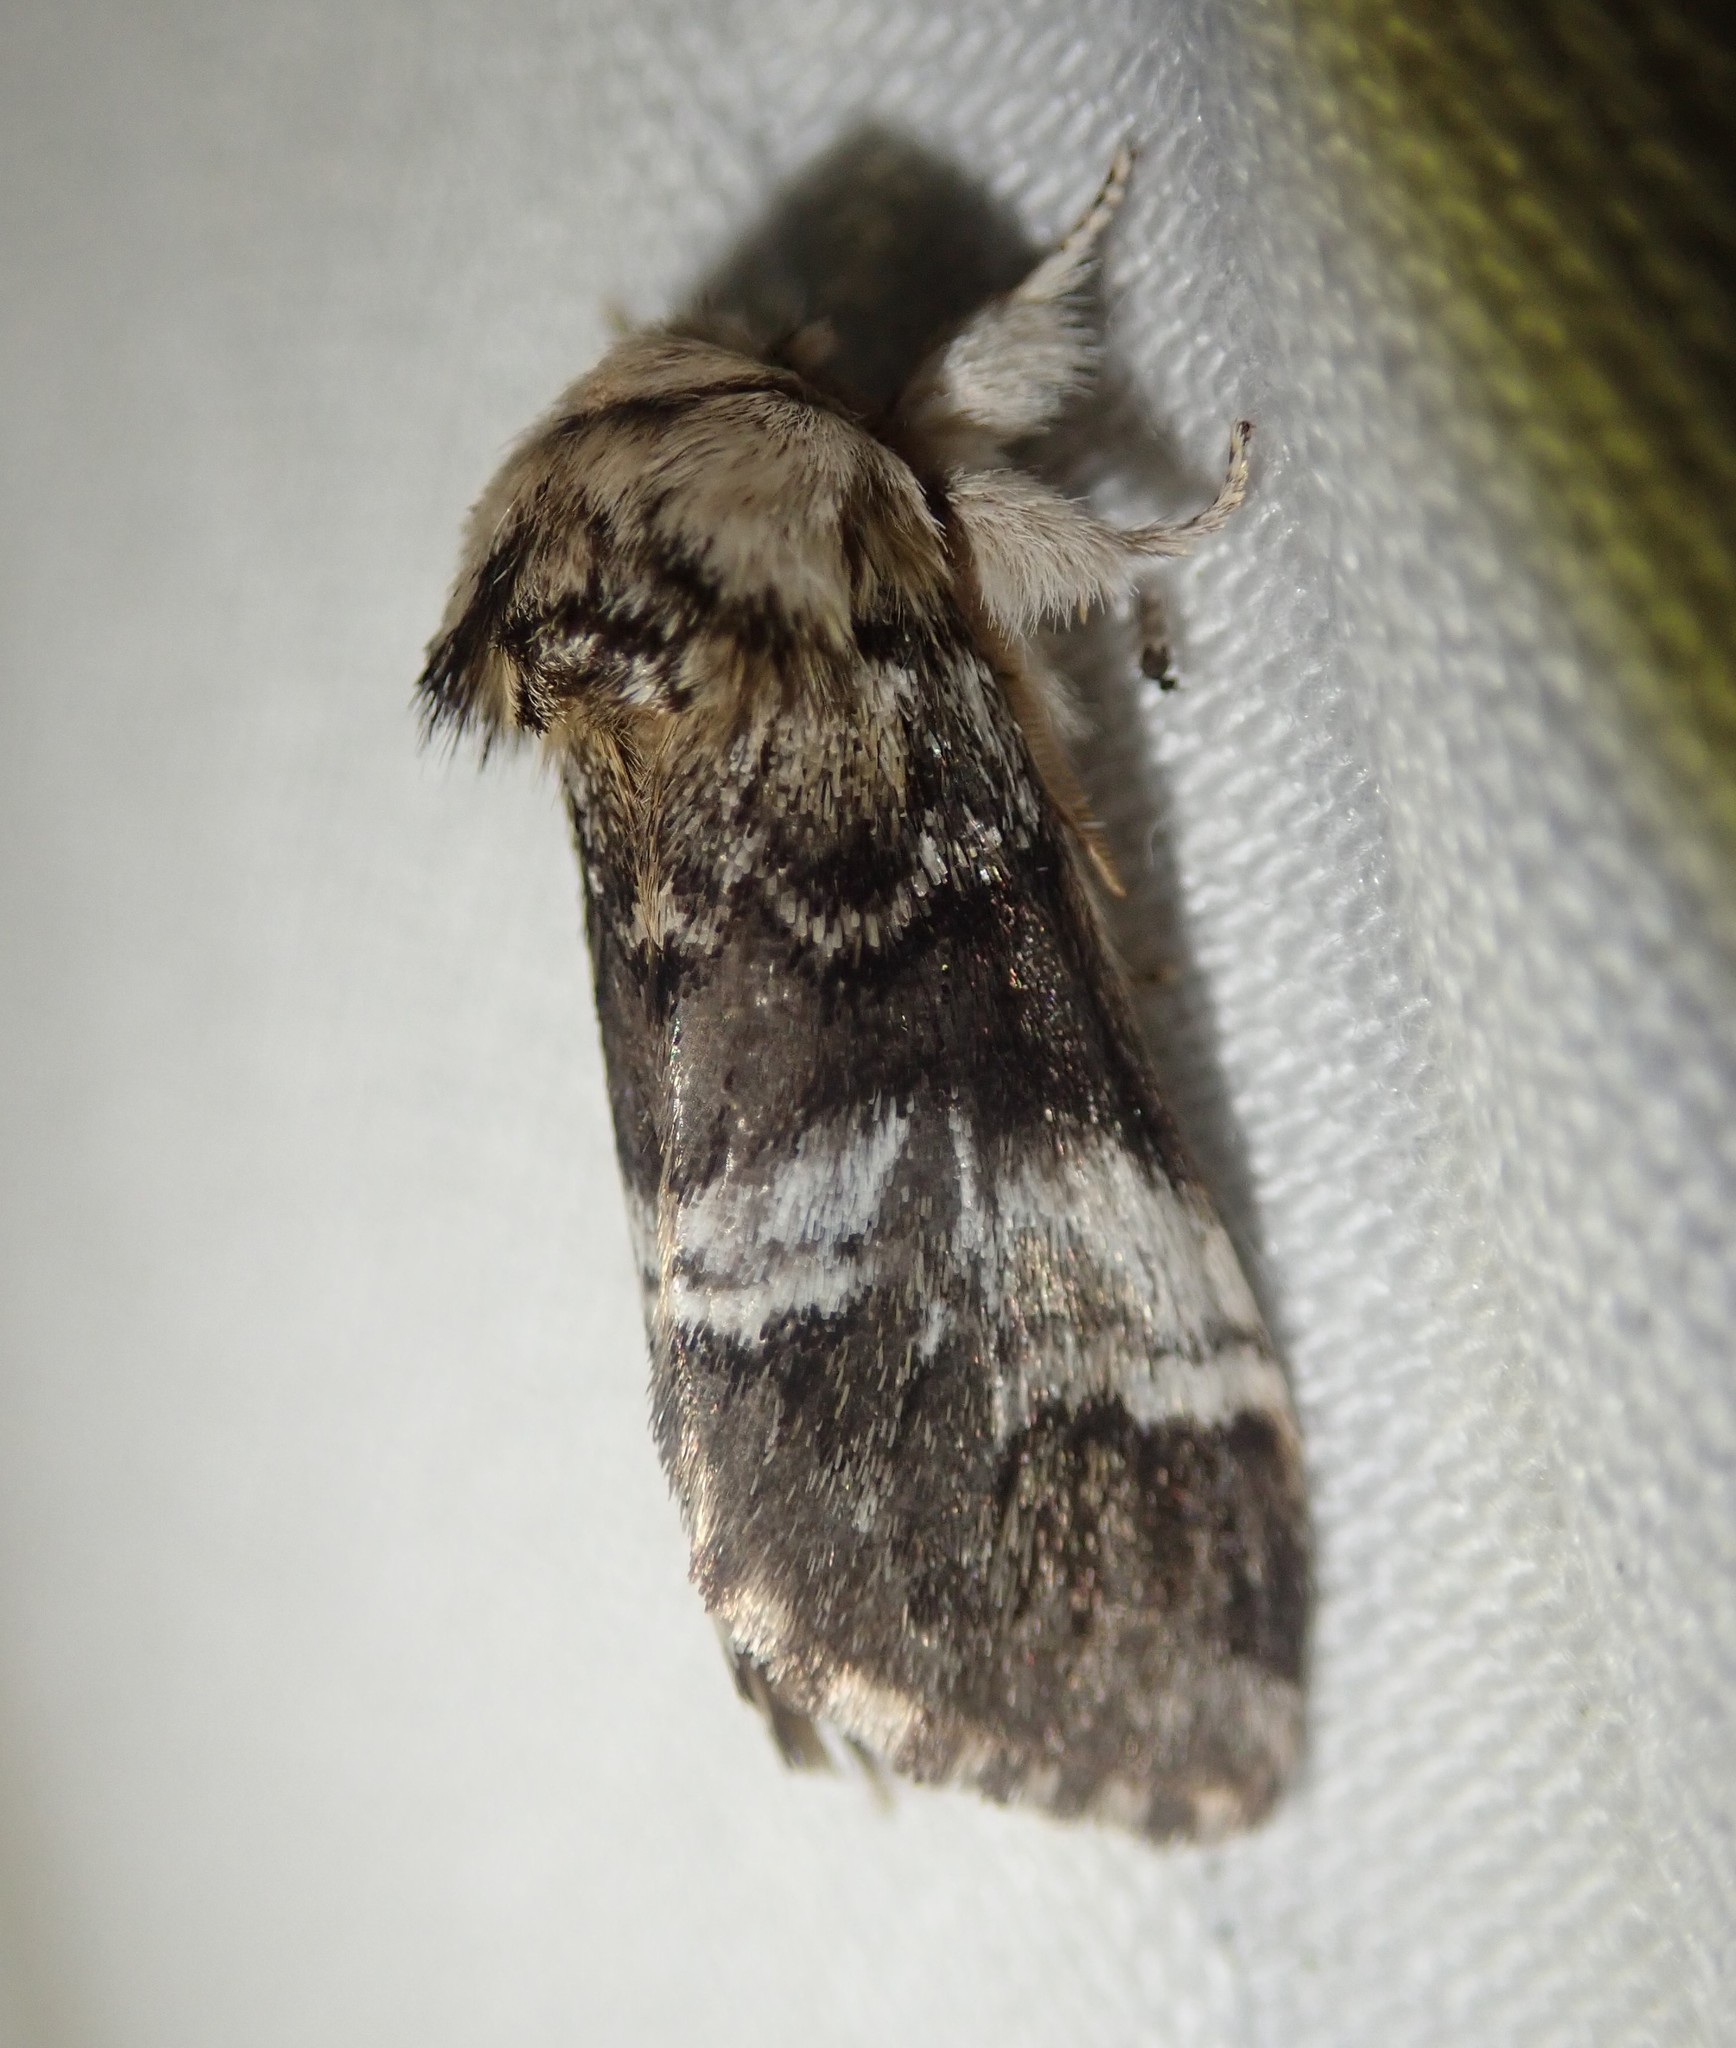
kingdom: Animalia
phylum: Arthropoda
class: Insecta
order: Lepidoptera
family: Notodontidae
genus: Drymonia
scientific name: Drymonia dodonaea
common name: Marbled brown
